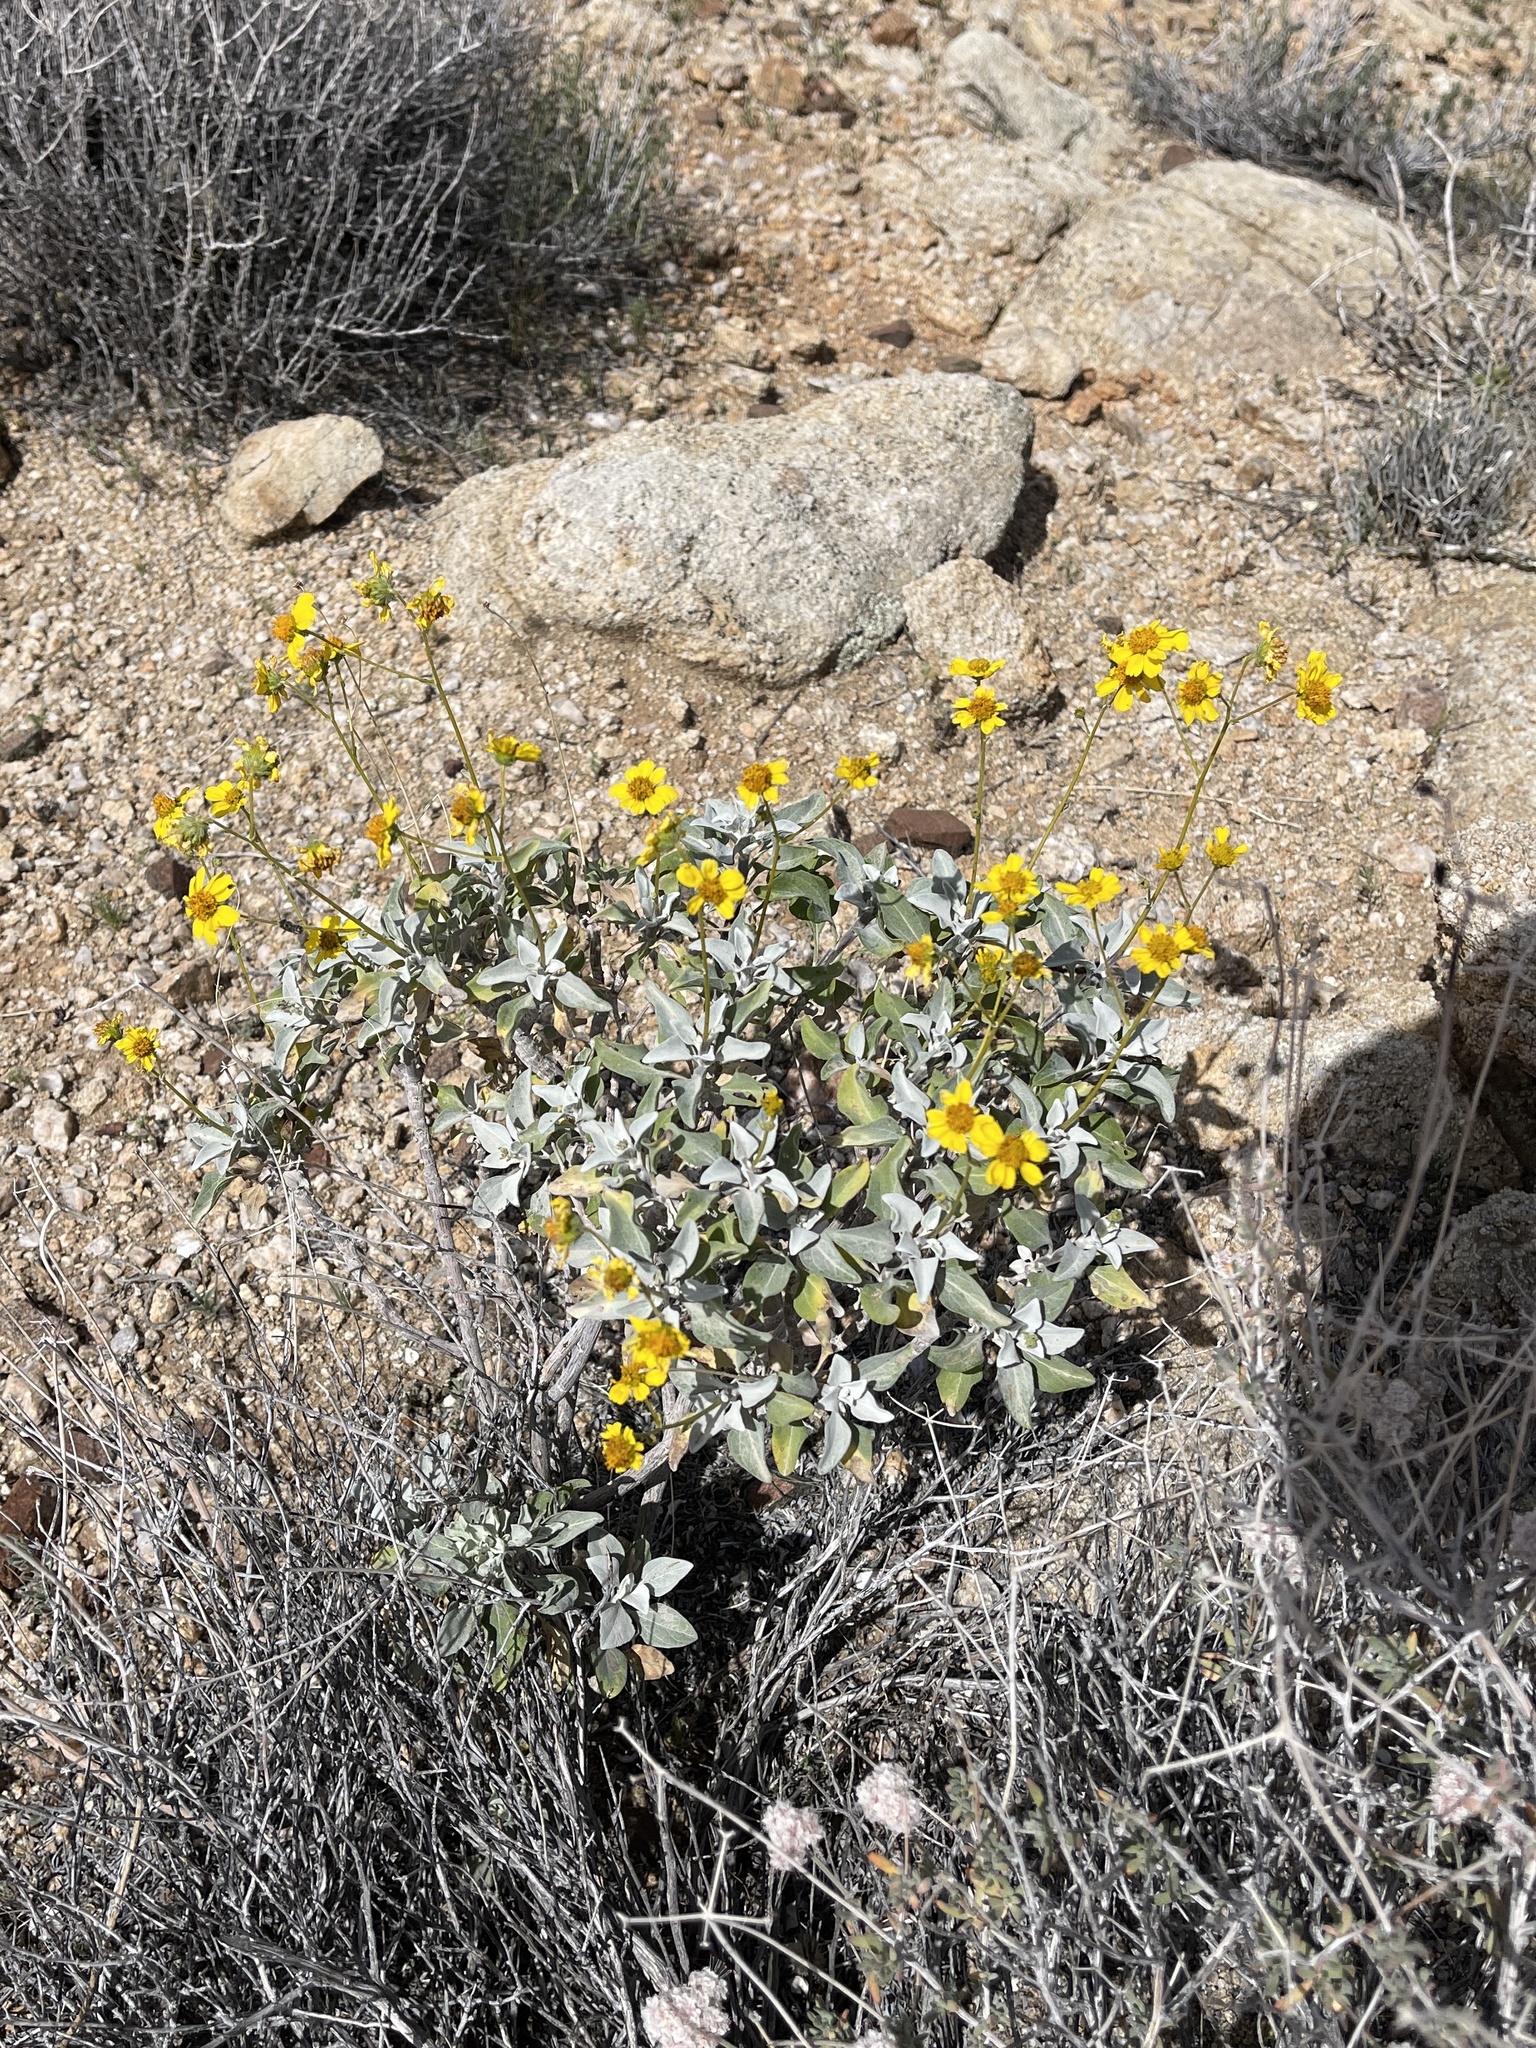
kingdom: Plantae
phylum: Tracheophyta
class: Magnoliopsida
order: Asterales
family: Asteraceae
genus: Encelia
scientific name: Encelia farinosa
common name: Brittlebush
